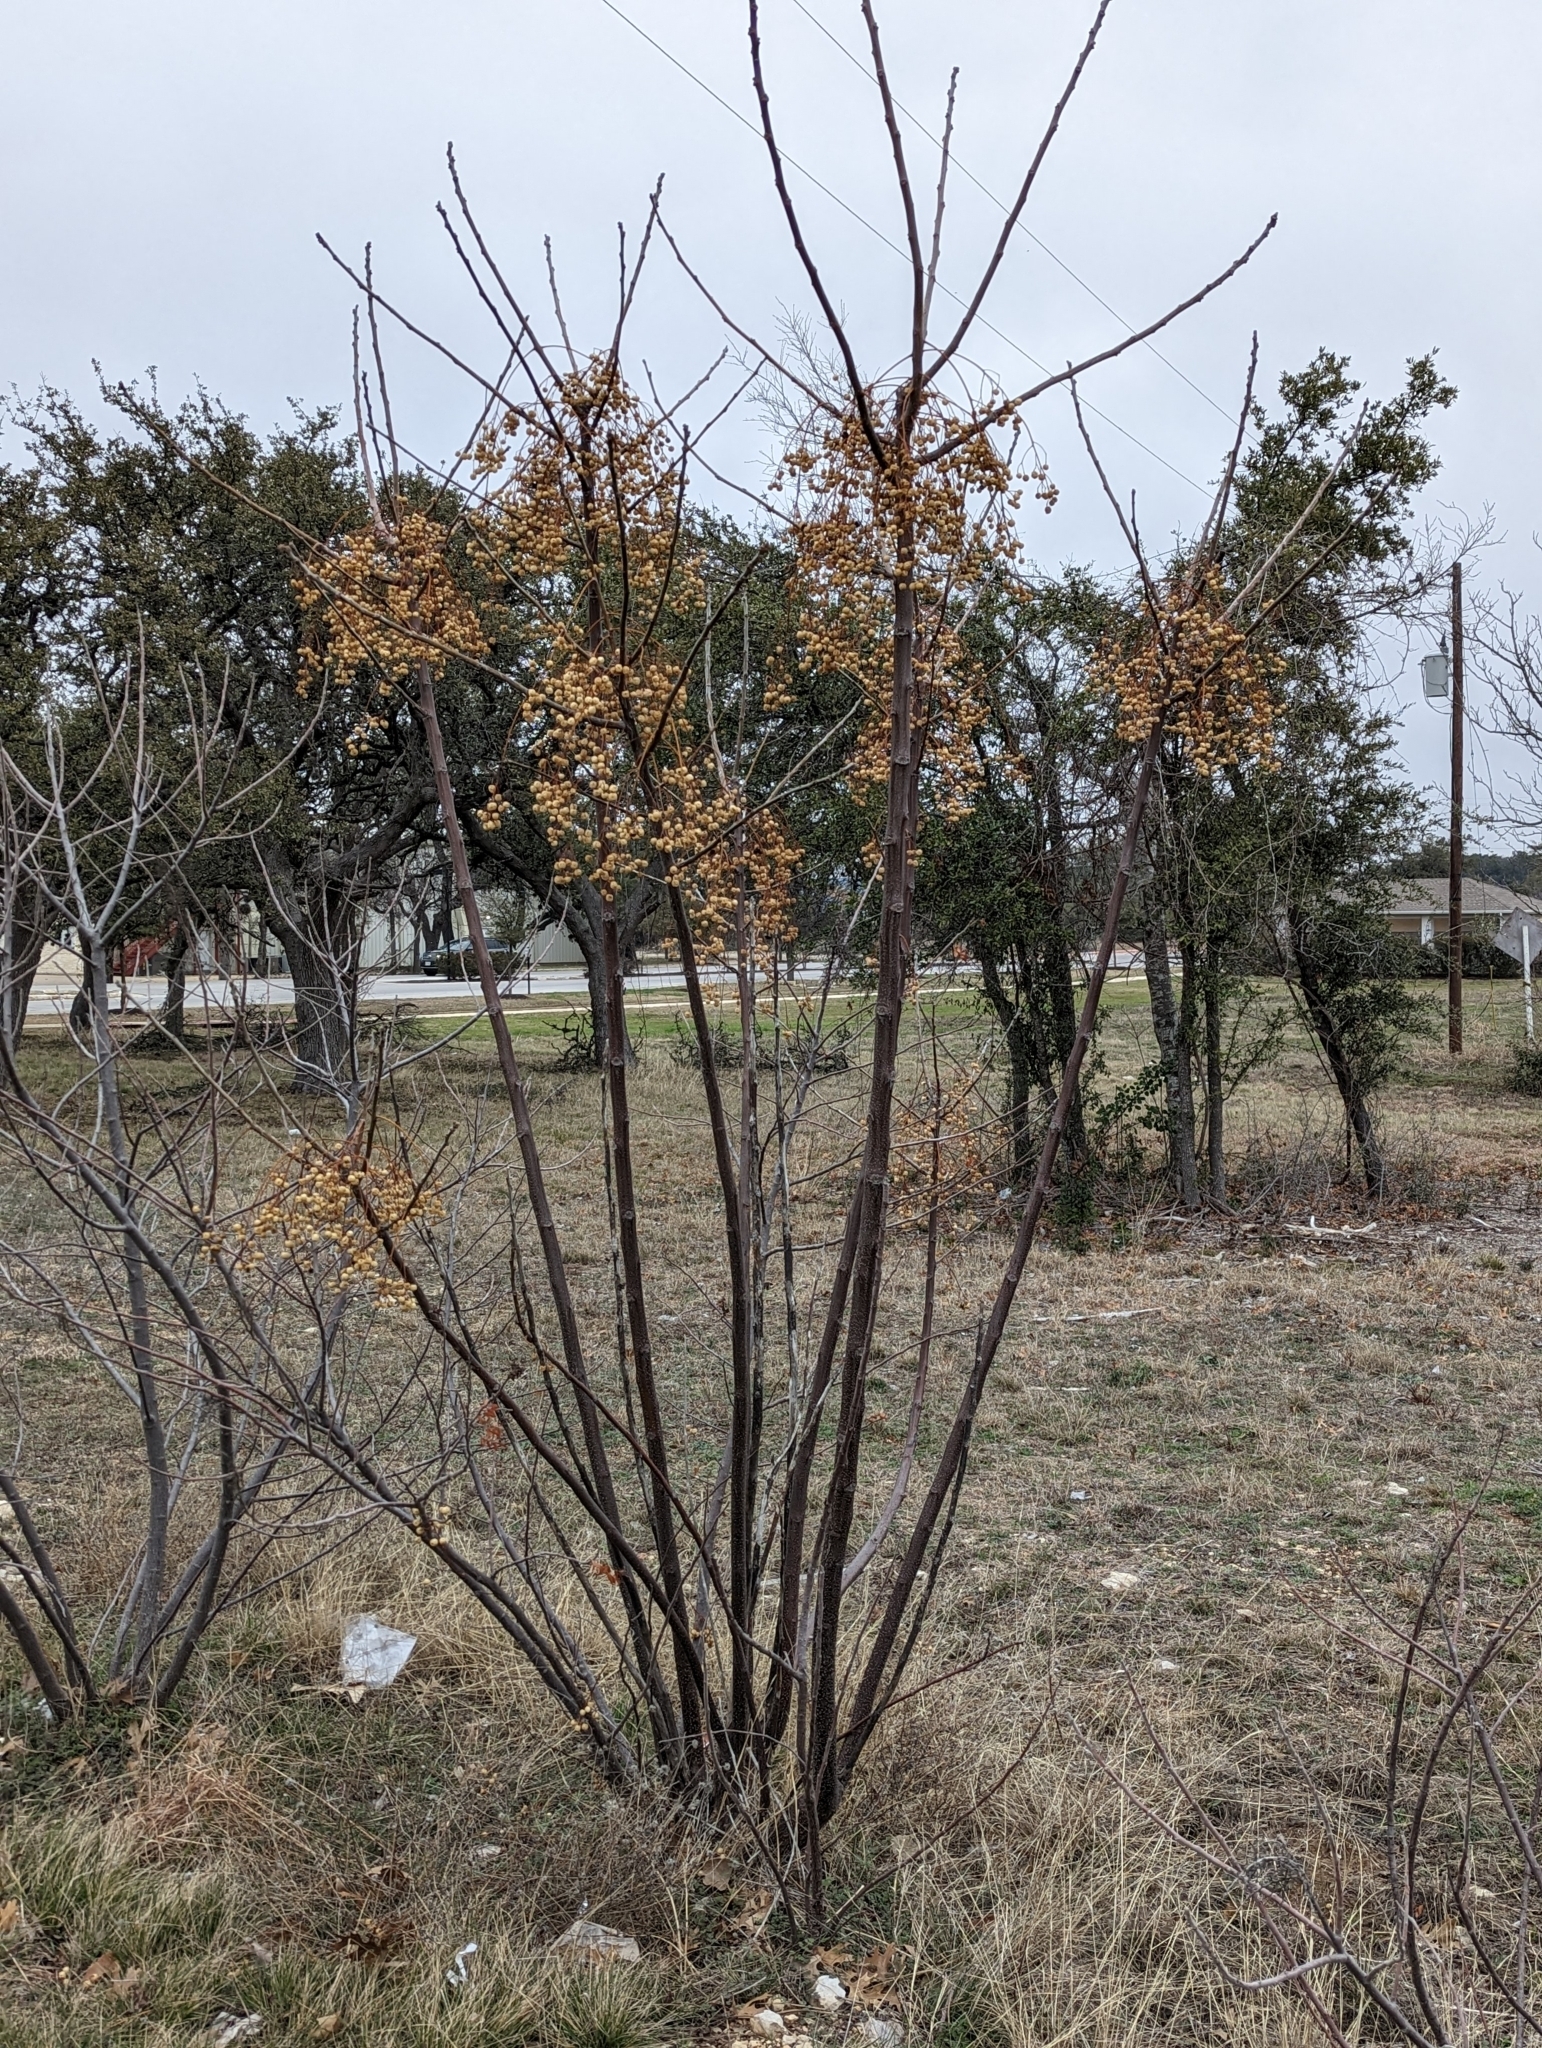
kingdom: Plantae
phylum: Tracheophyta
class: Magnoliopsida
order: Sapindales
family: Meliaceae
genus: Melia
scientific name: Melia azedarach
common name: Chinaberrytree
